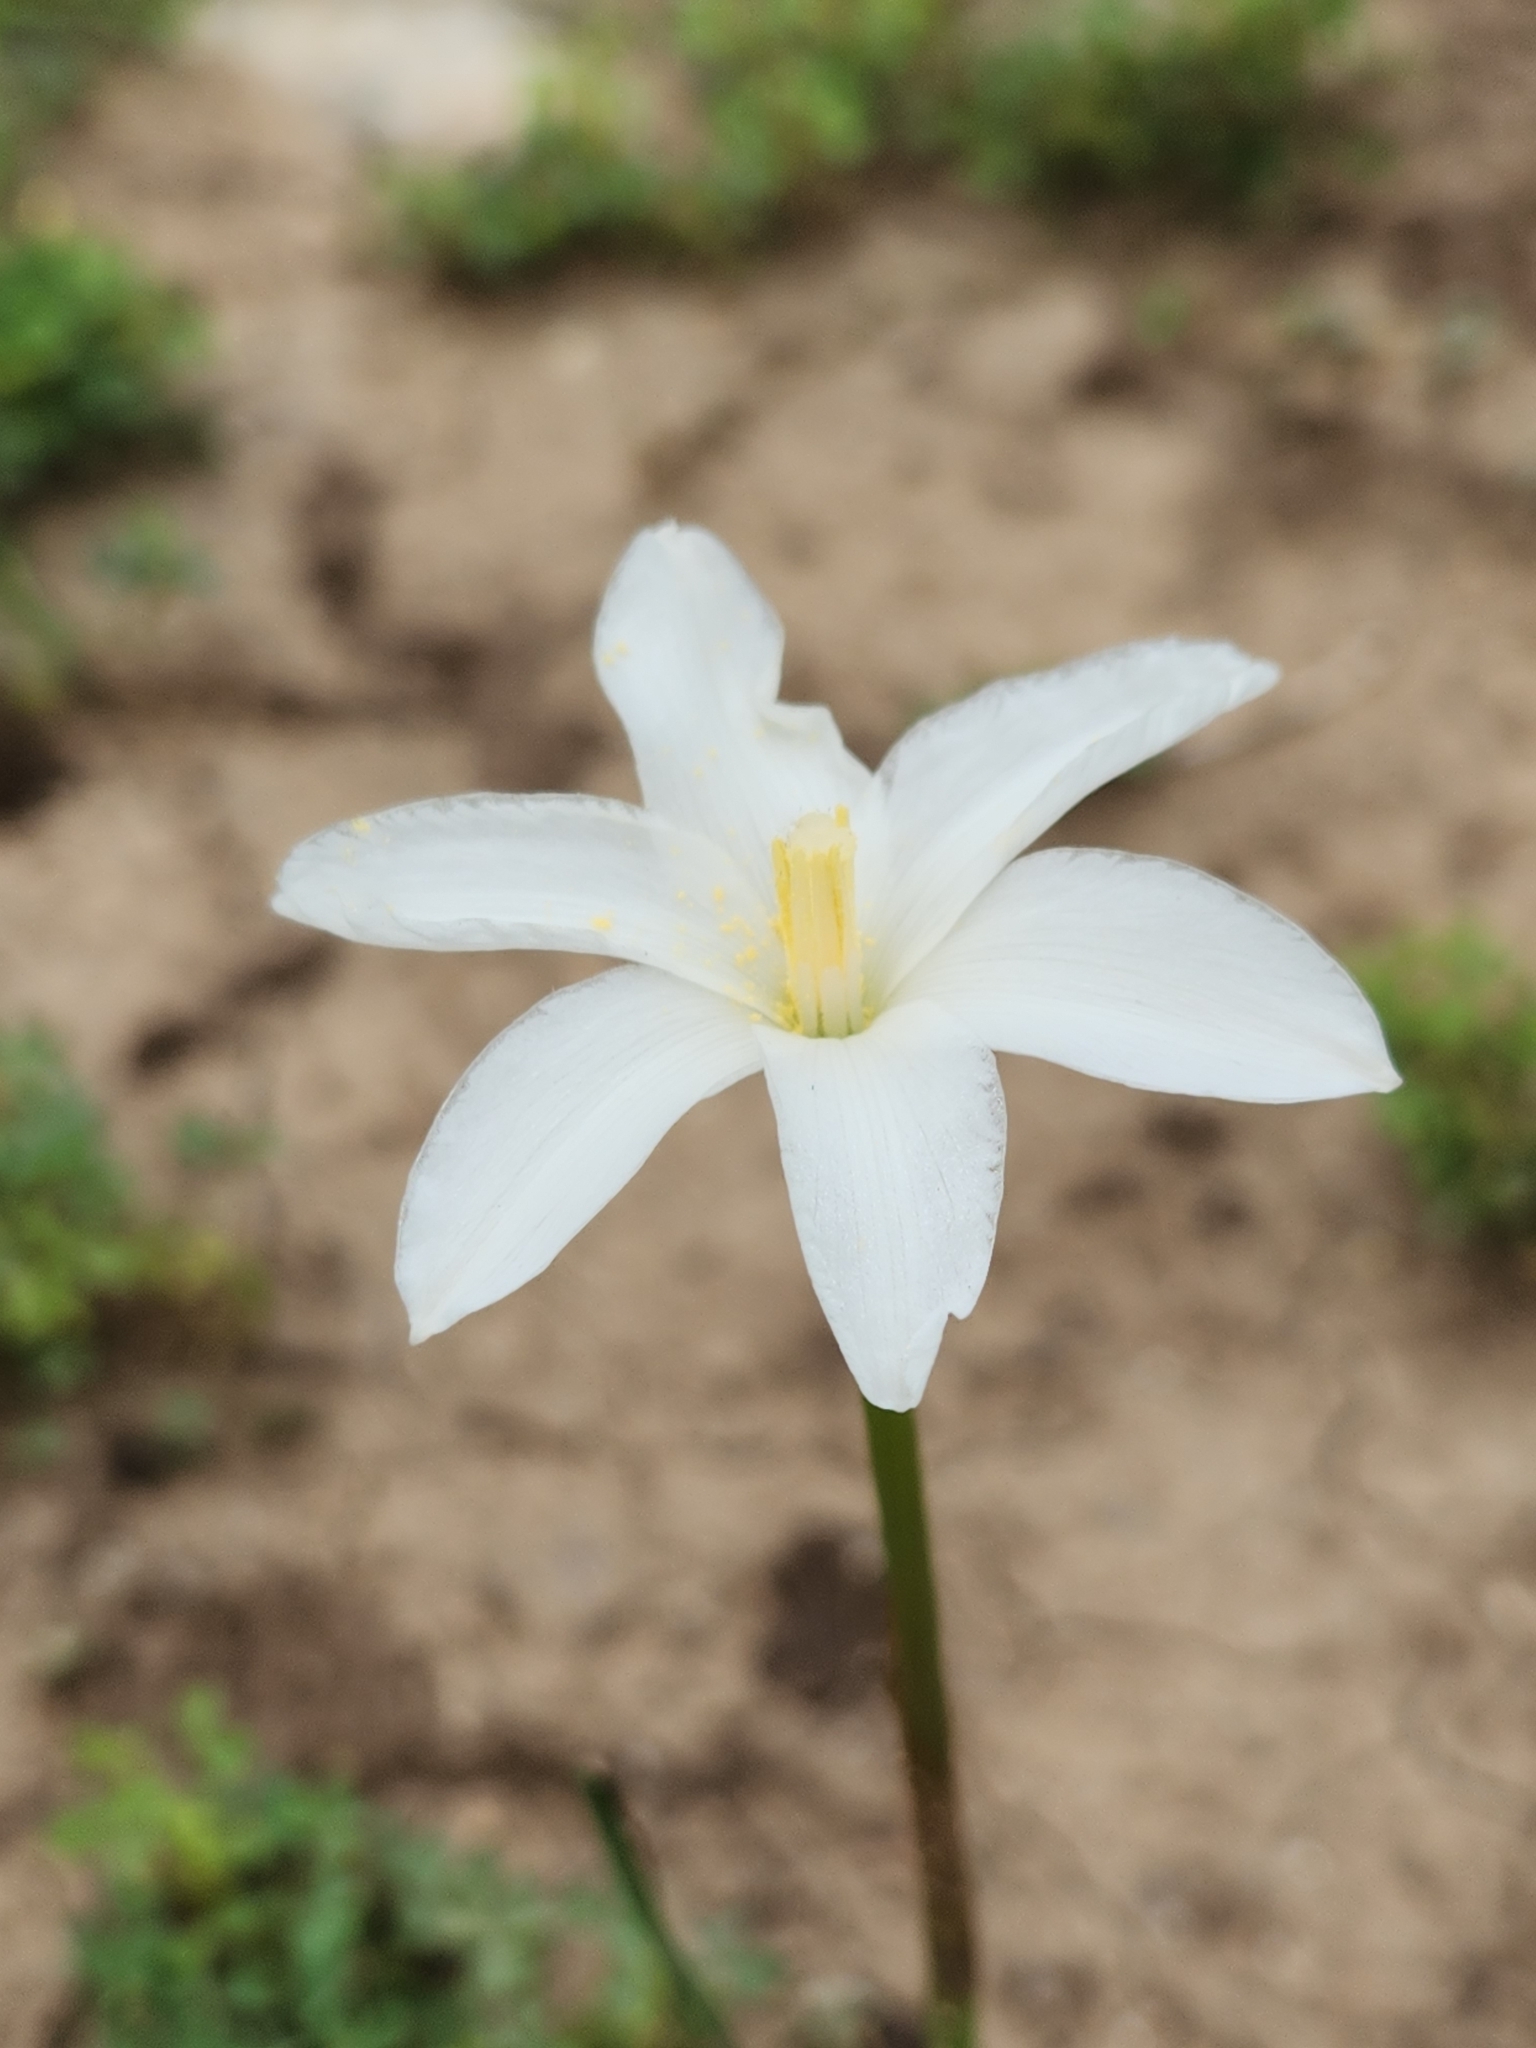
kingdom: Plantae
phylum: Tracheophyta
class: Liliopsida
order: Asparagales
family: Amaryllidaceae
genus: Zephyranthes
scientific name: Zephyranthes chlorosolen
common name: Evening rain-lily
